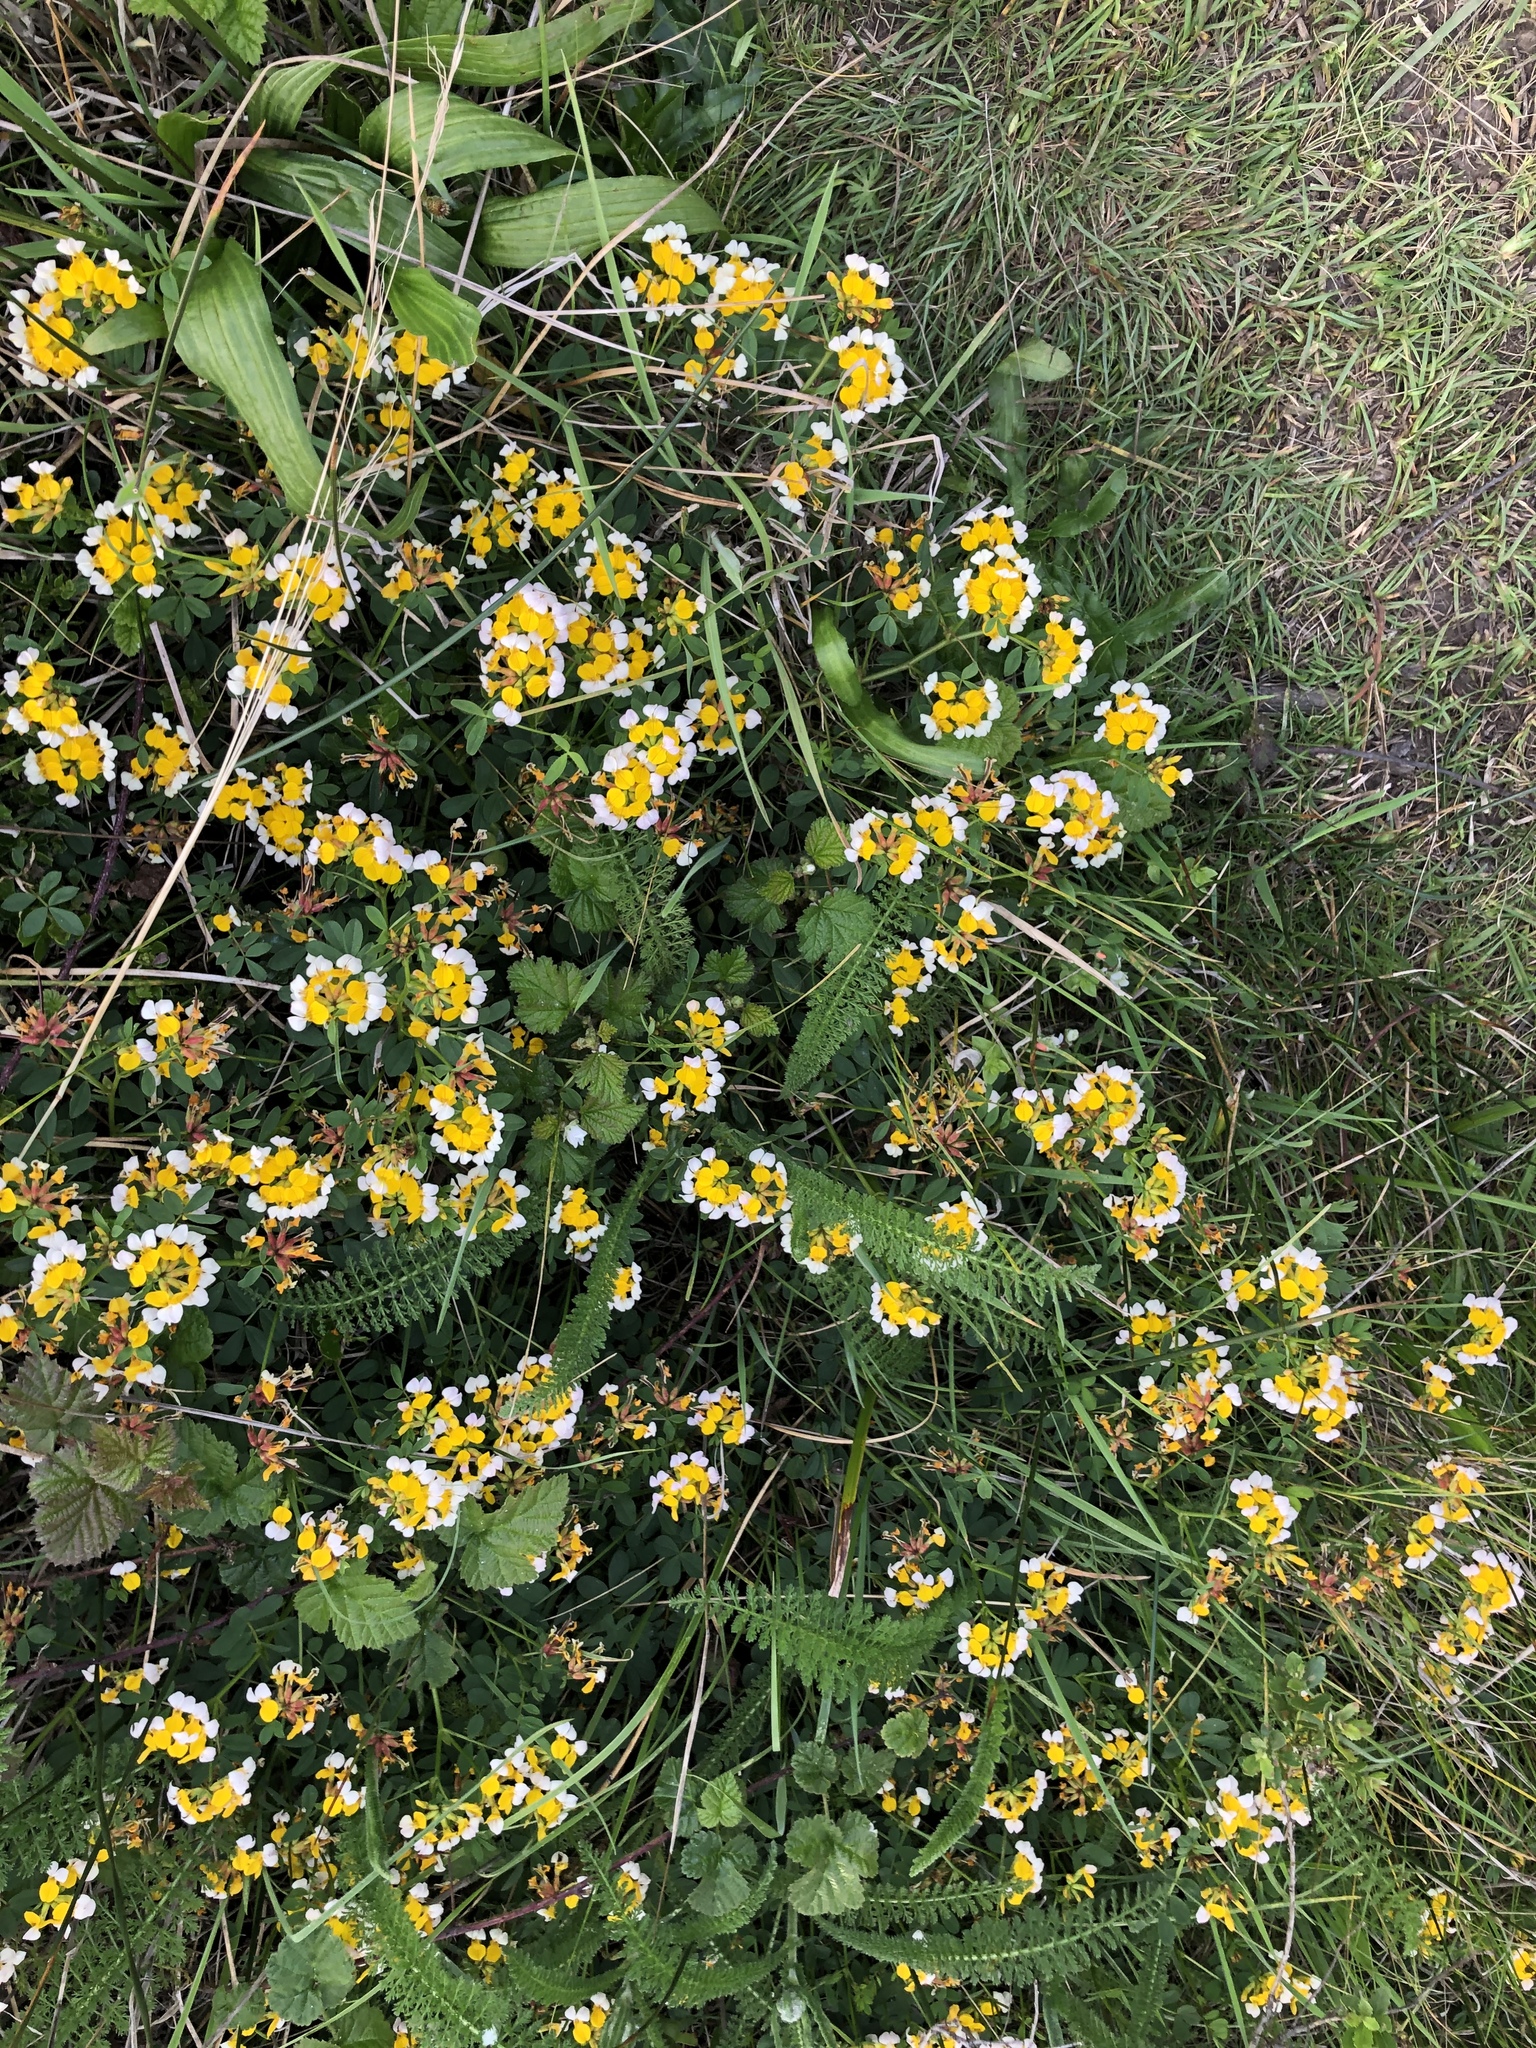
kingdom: Plantae
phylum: Tracheophyta
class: Magnoliopsida
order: Fabales
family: Fabaceae
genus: Hosackia
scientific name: Hosackia gracilis
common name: Seaside bird's-foot lotus
